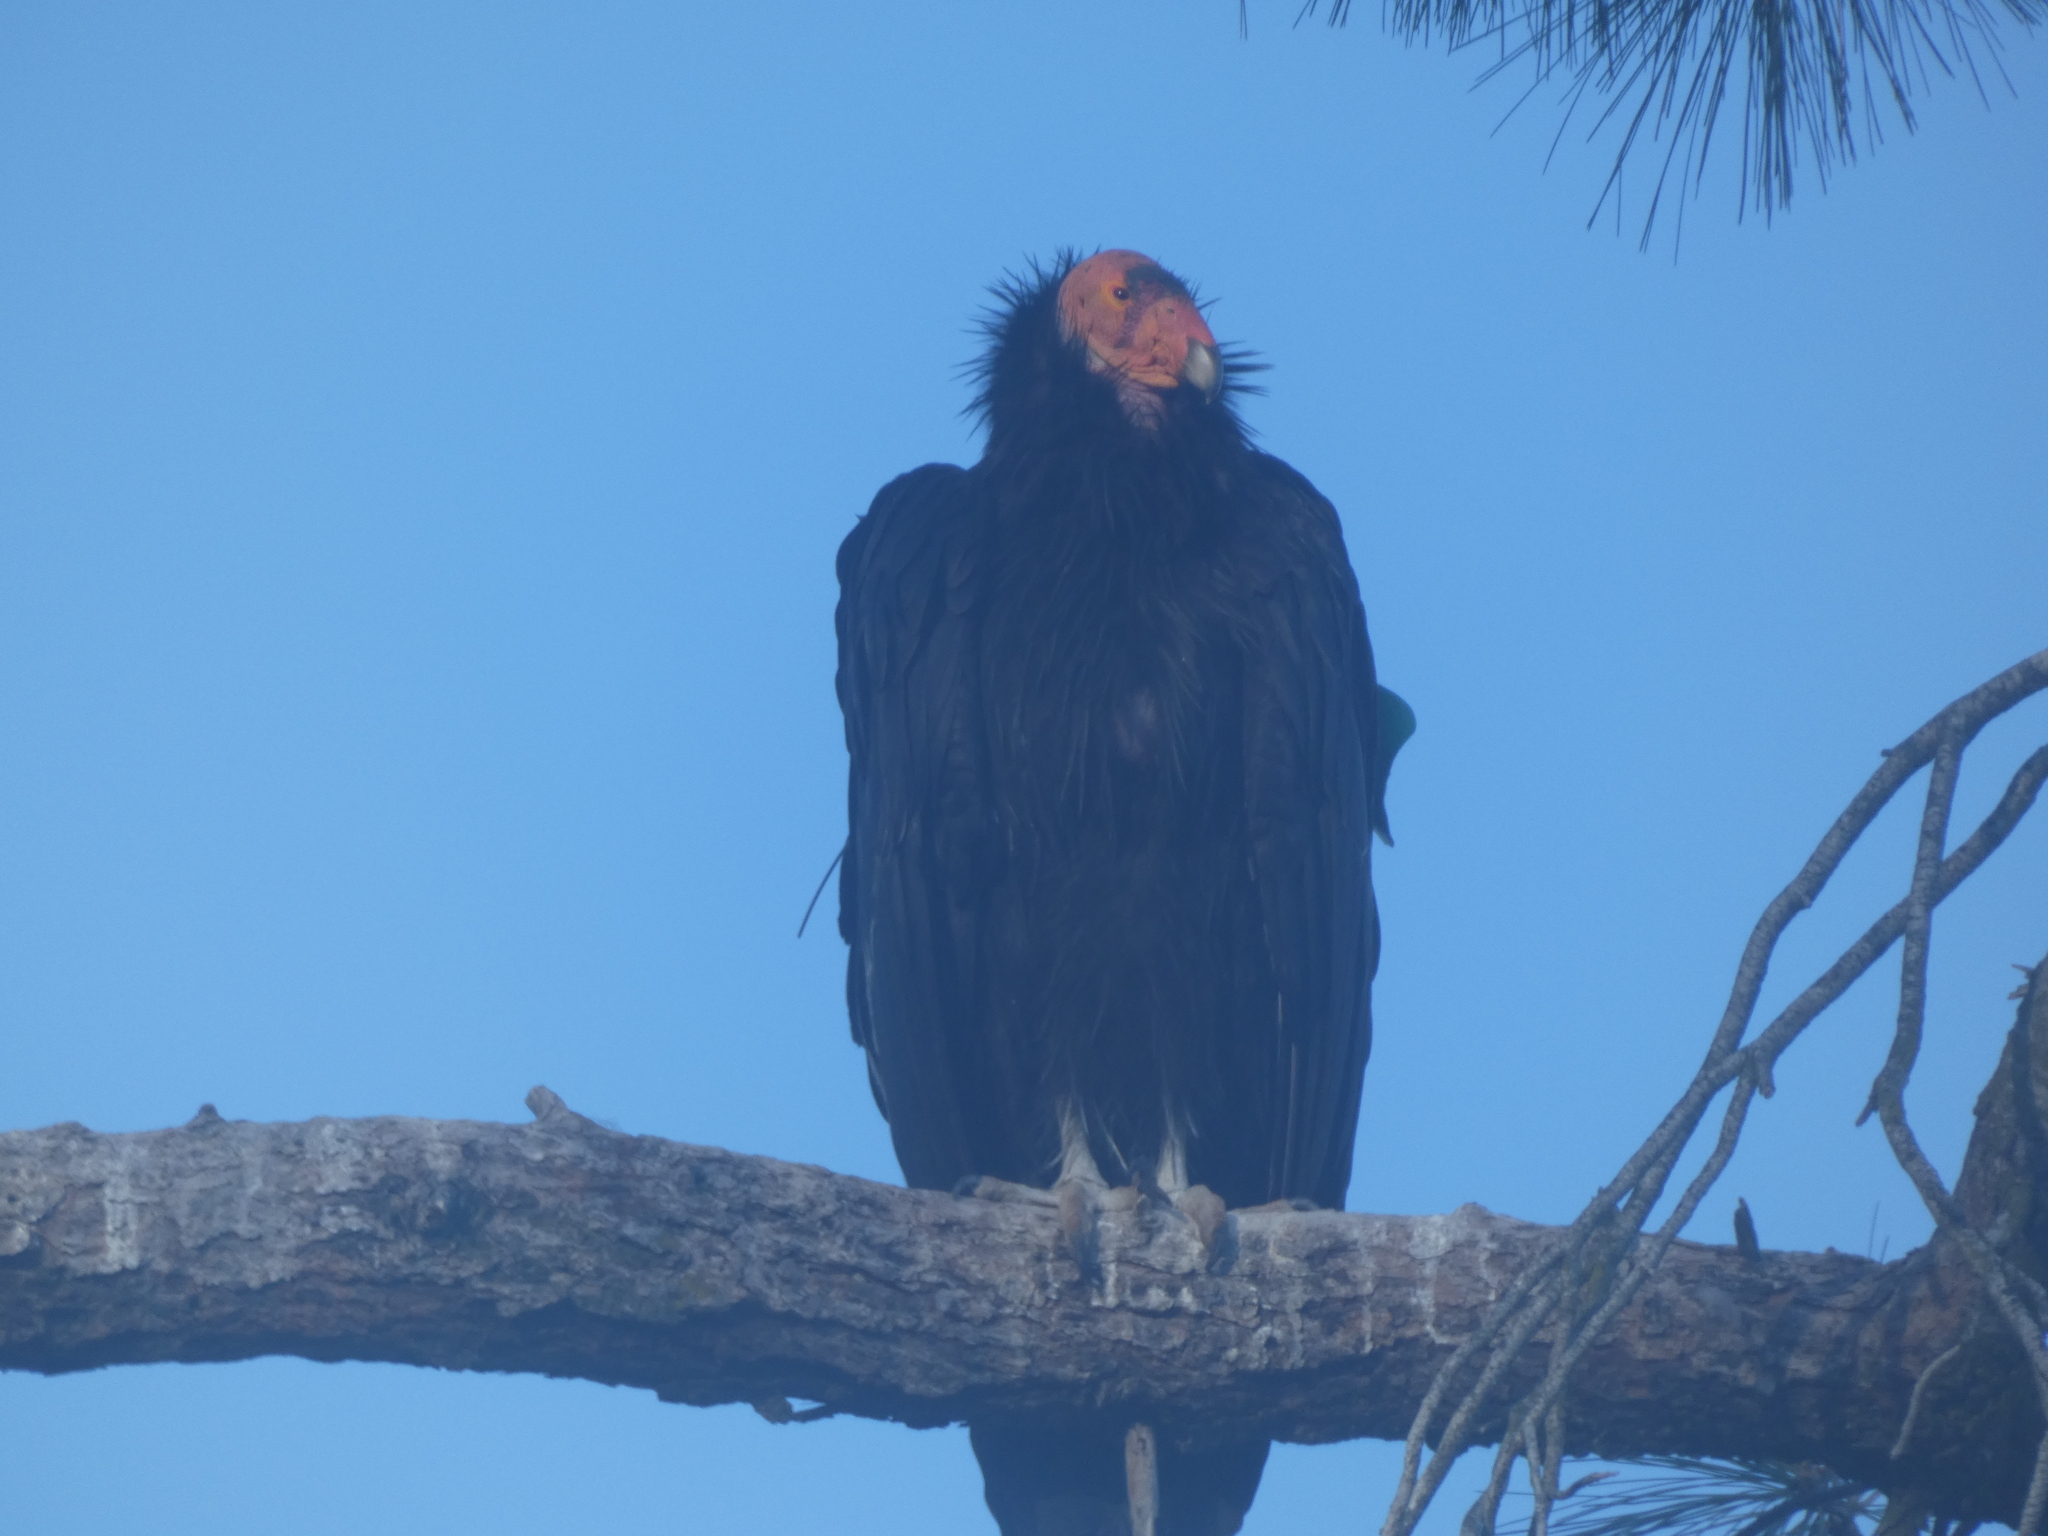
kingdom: Animalia
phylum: Chordata
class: Aves
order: Accipitriformes
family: Cathartidae
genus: Gymnogyps
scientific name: Gymnogyps californianus
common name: California condor
